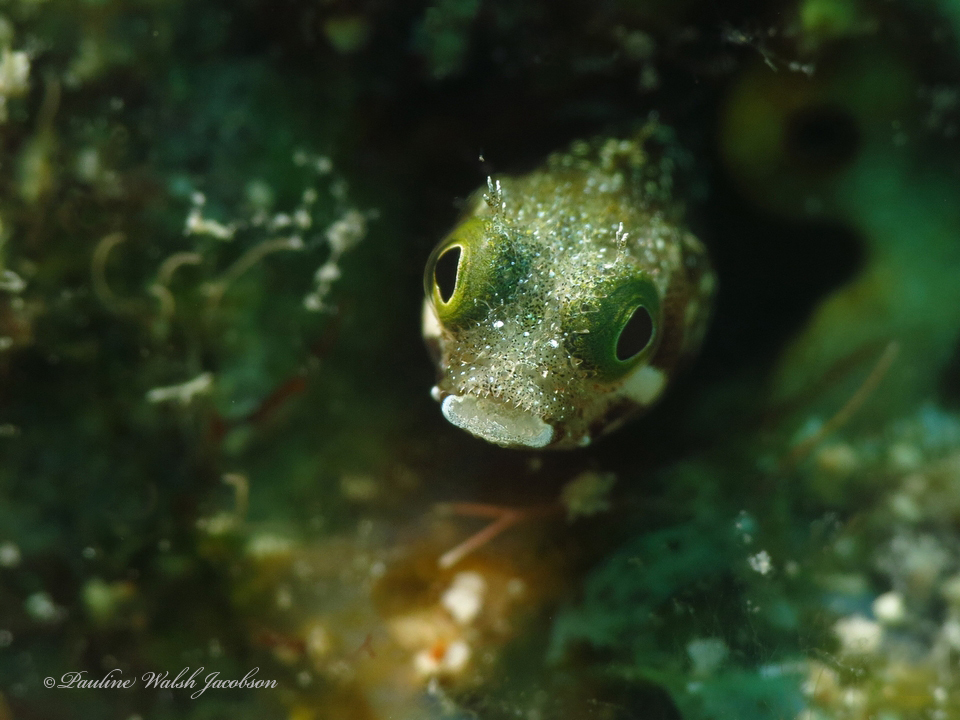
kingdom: Animalia
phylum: Chordata
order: Perciformes
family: Chaenopsidae
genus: Acanthemblemaria
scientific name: Acanthemblemaria spinosa
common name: Spinyhead blenny
